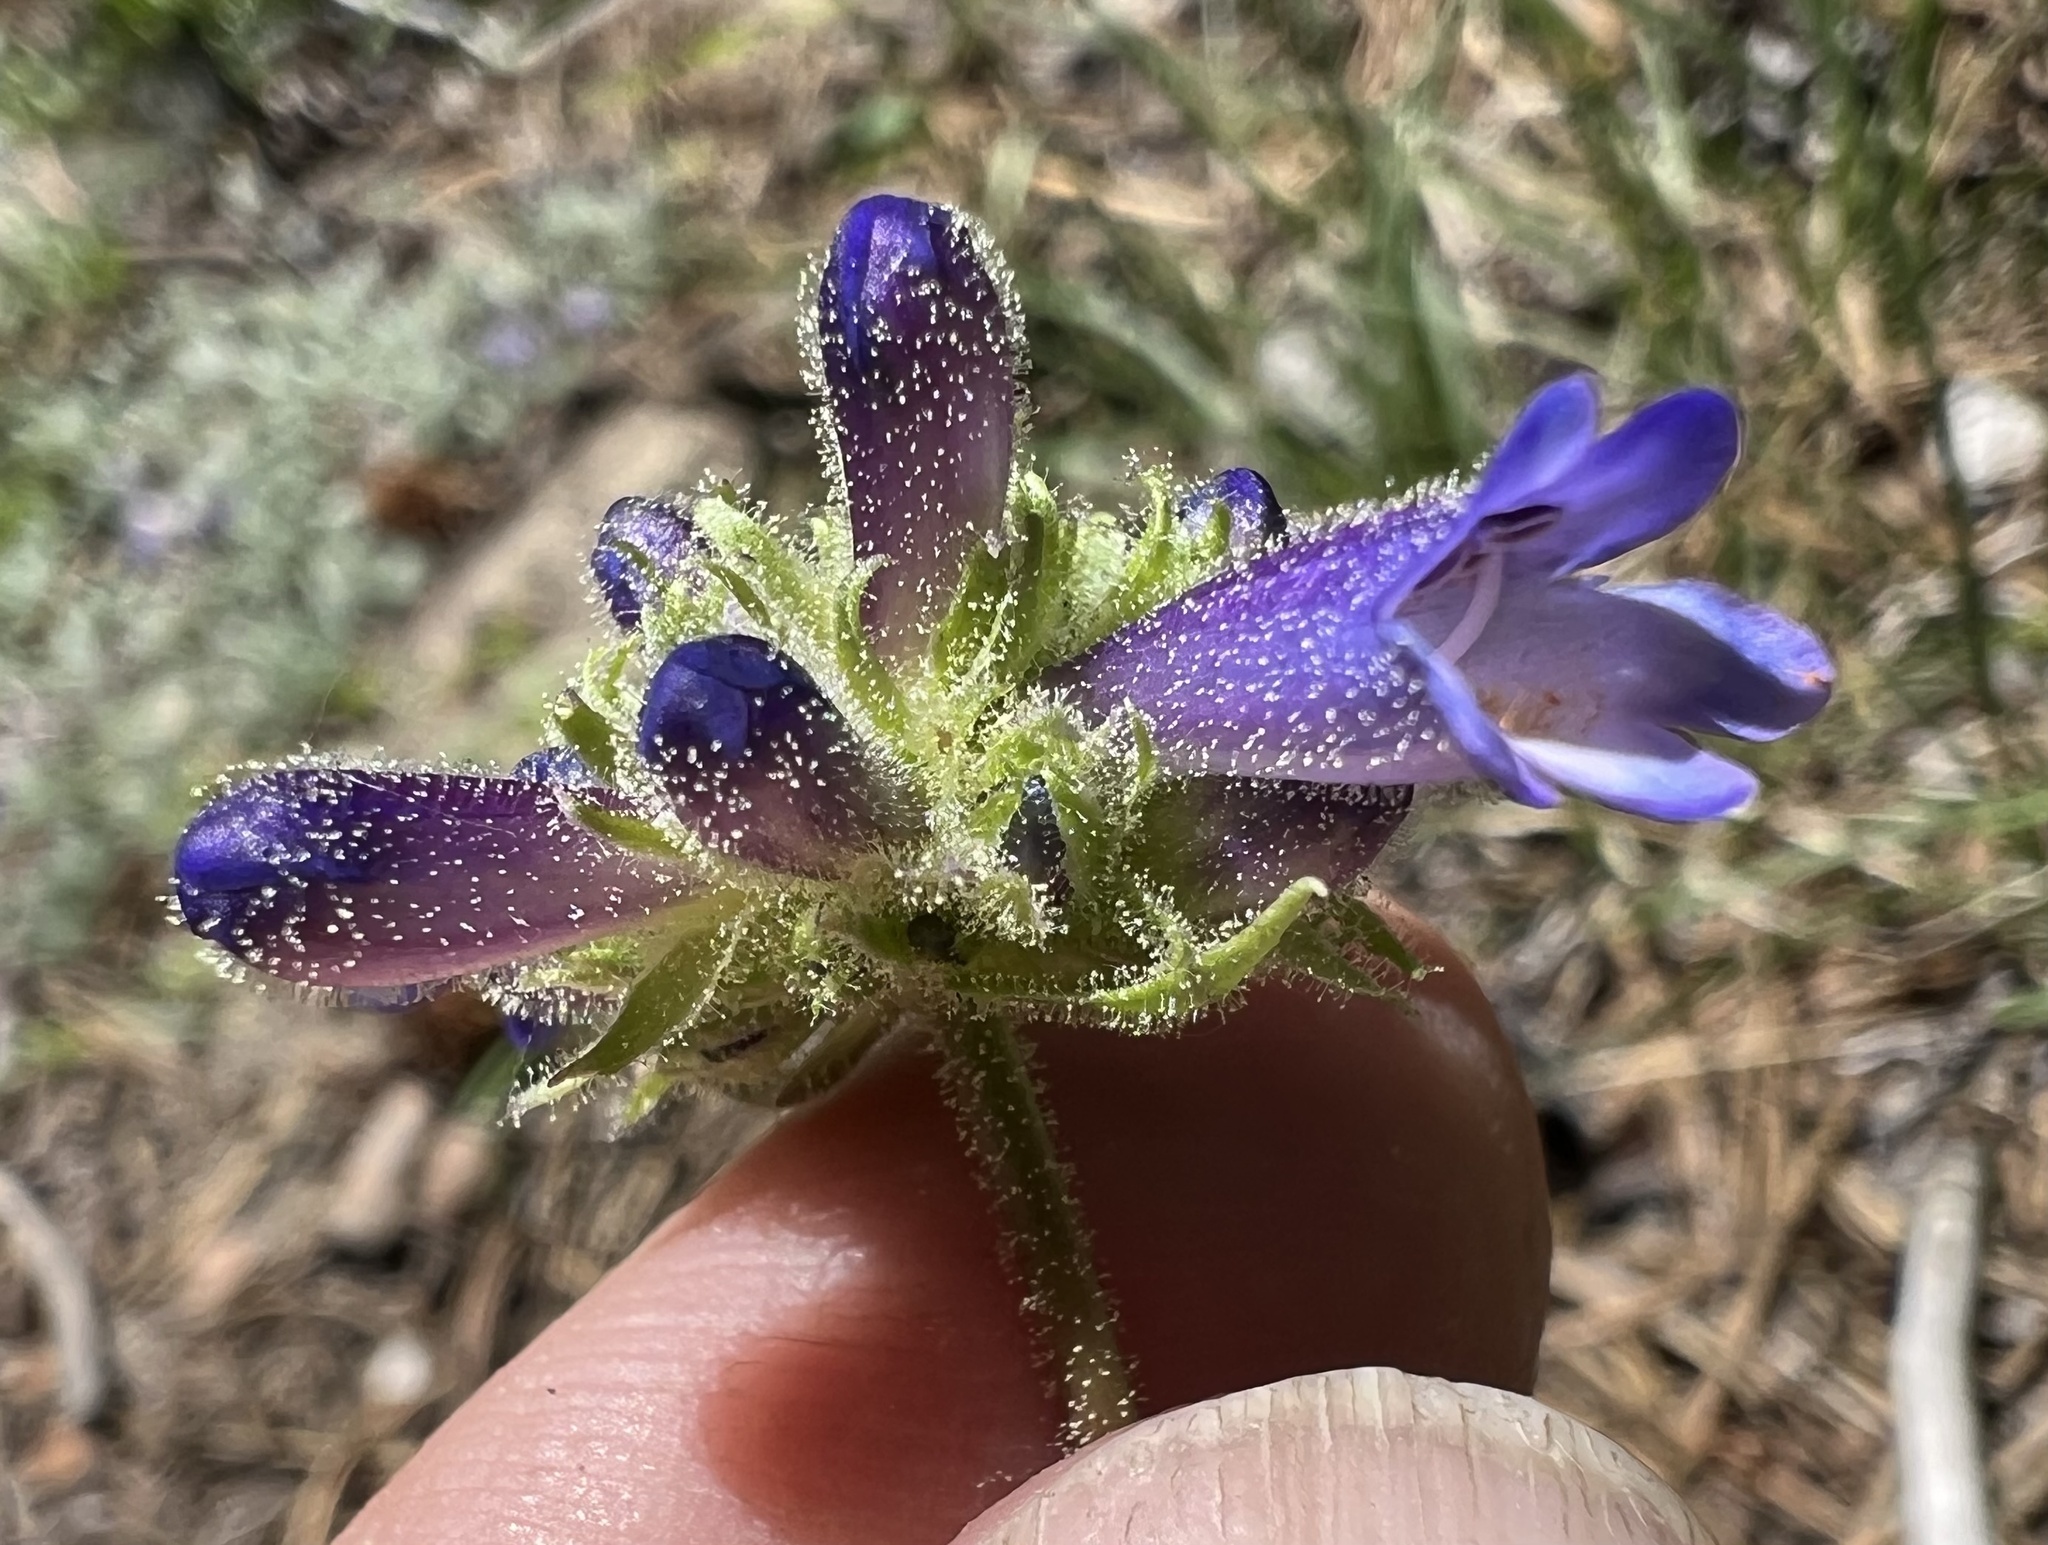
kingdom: Plantae
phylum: Tracheophyta
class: Magnoliopsida
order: Lamiales
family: Plantaginaceae
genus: Penstemon
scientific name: Penstemon heterodoxus
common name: Sierran penstemon
